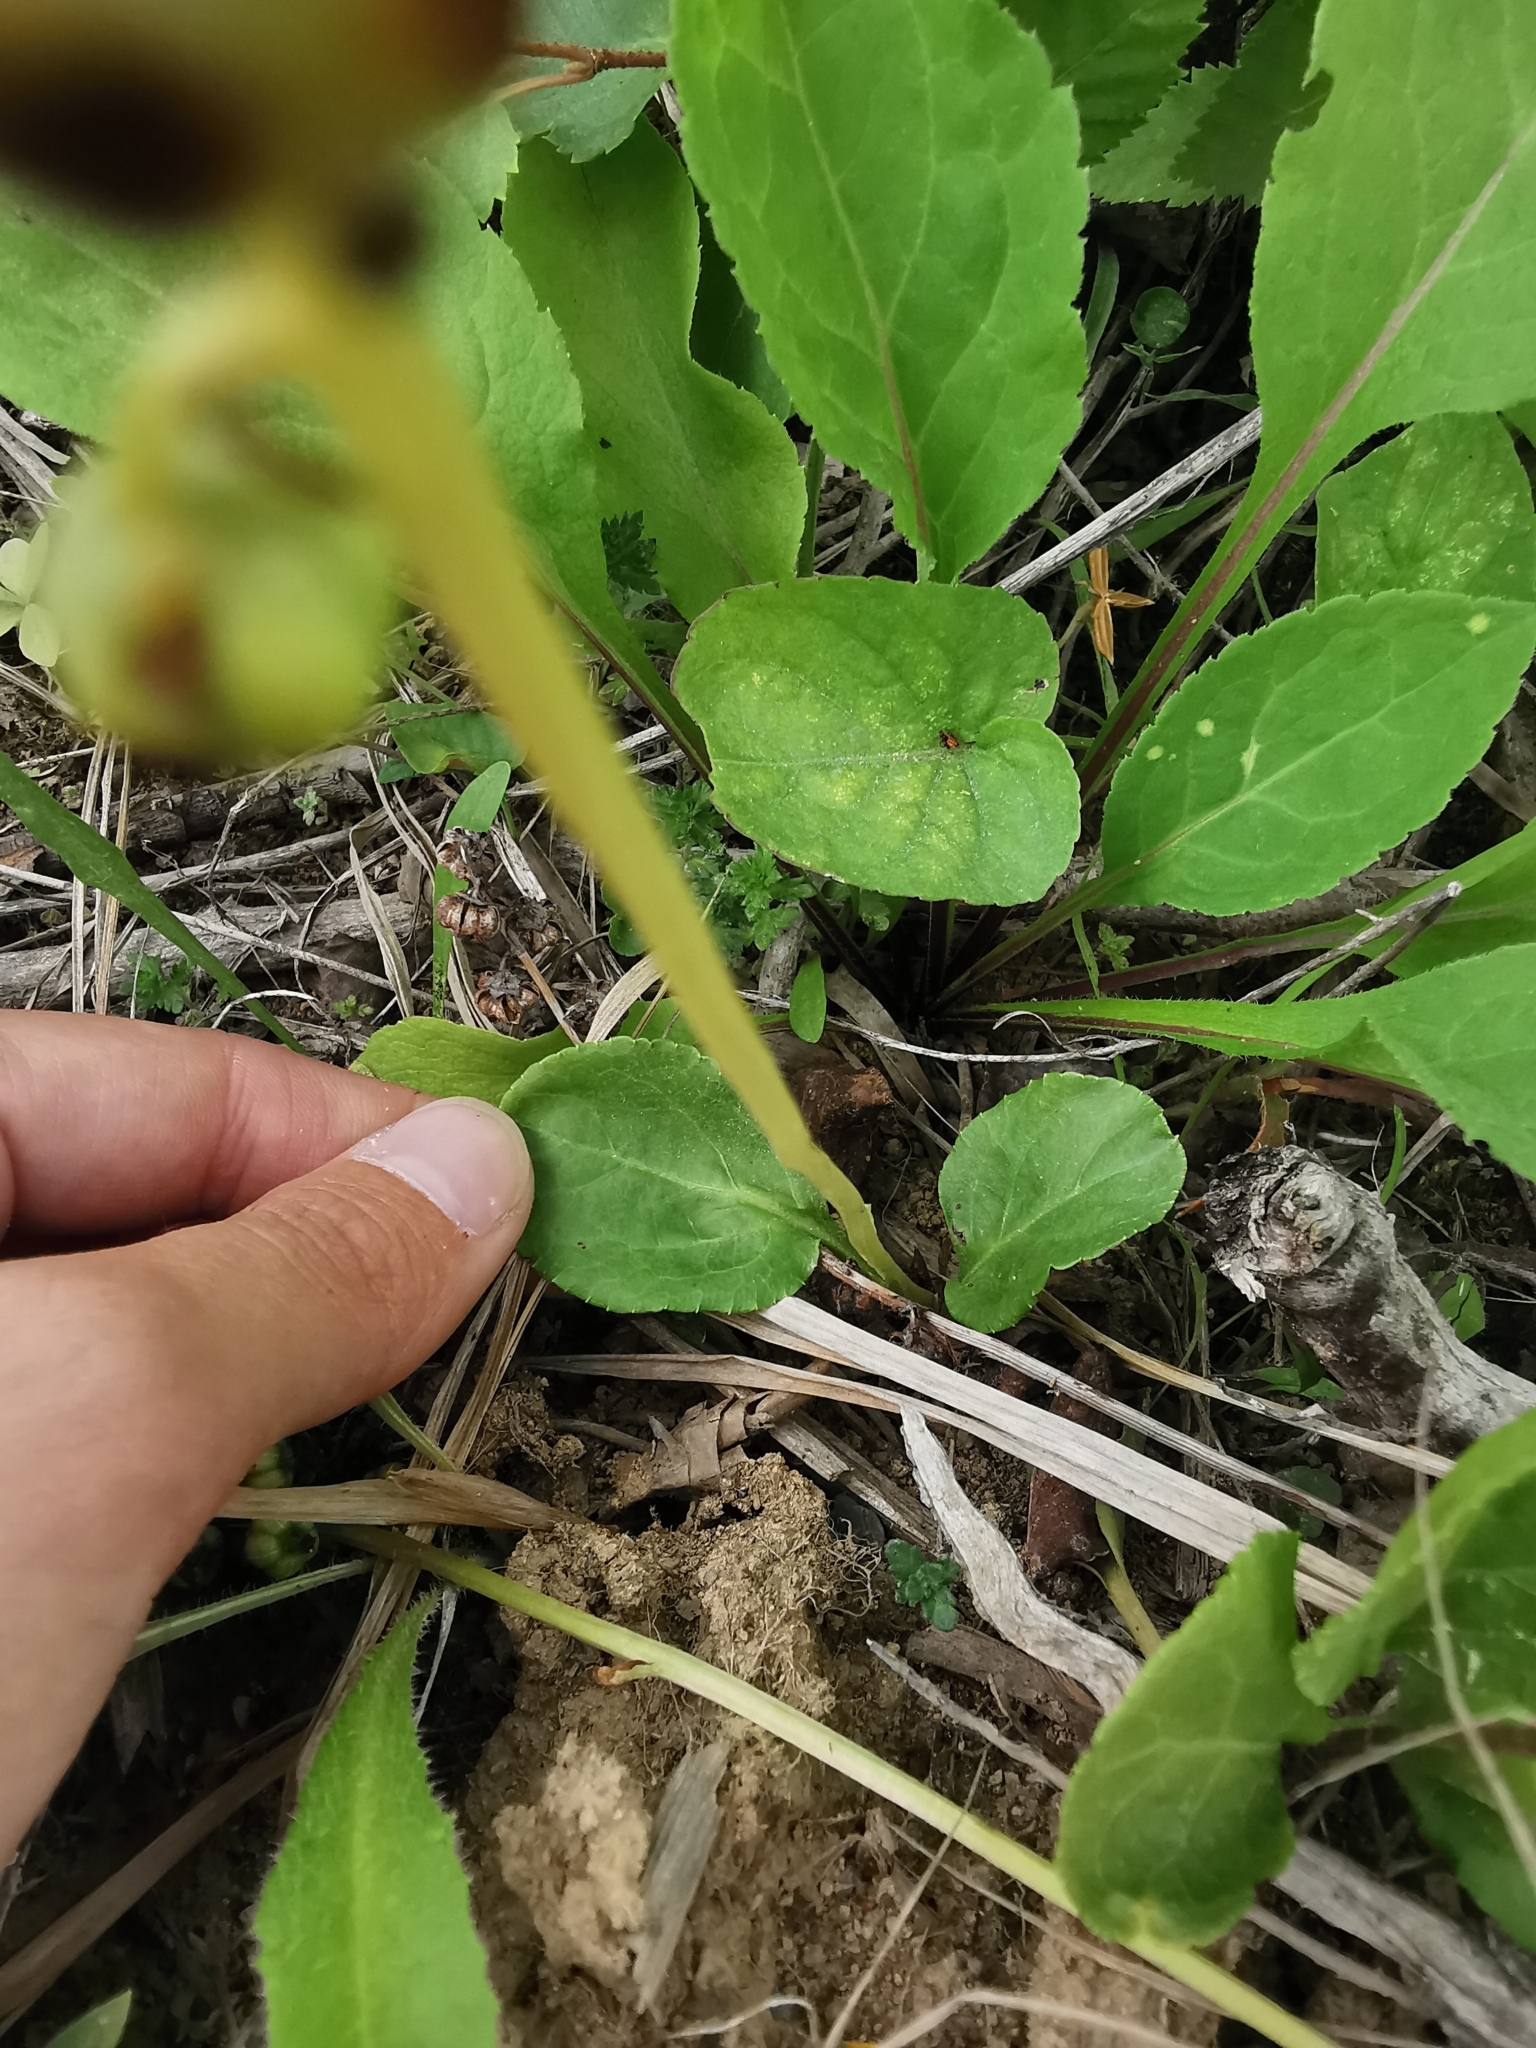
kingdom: Plantae
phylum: Tracheophyta
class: Magnoliopsida
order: Ericales
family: Ericaceae
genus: Pyrola
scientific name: Pyrola minor
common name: Common wintergreen
